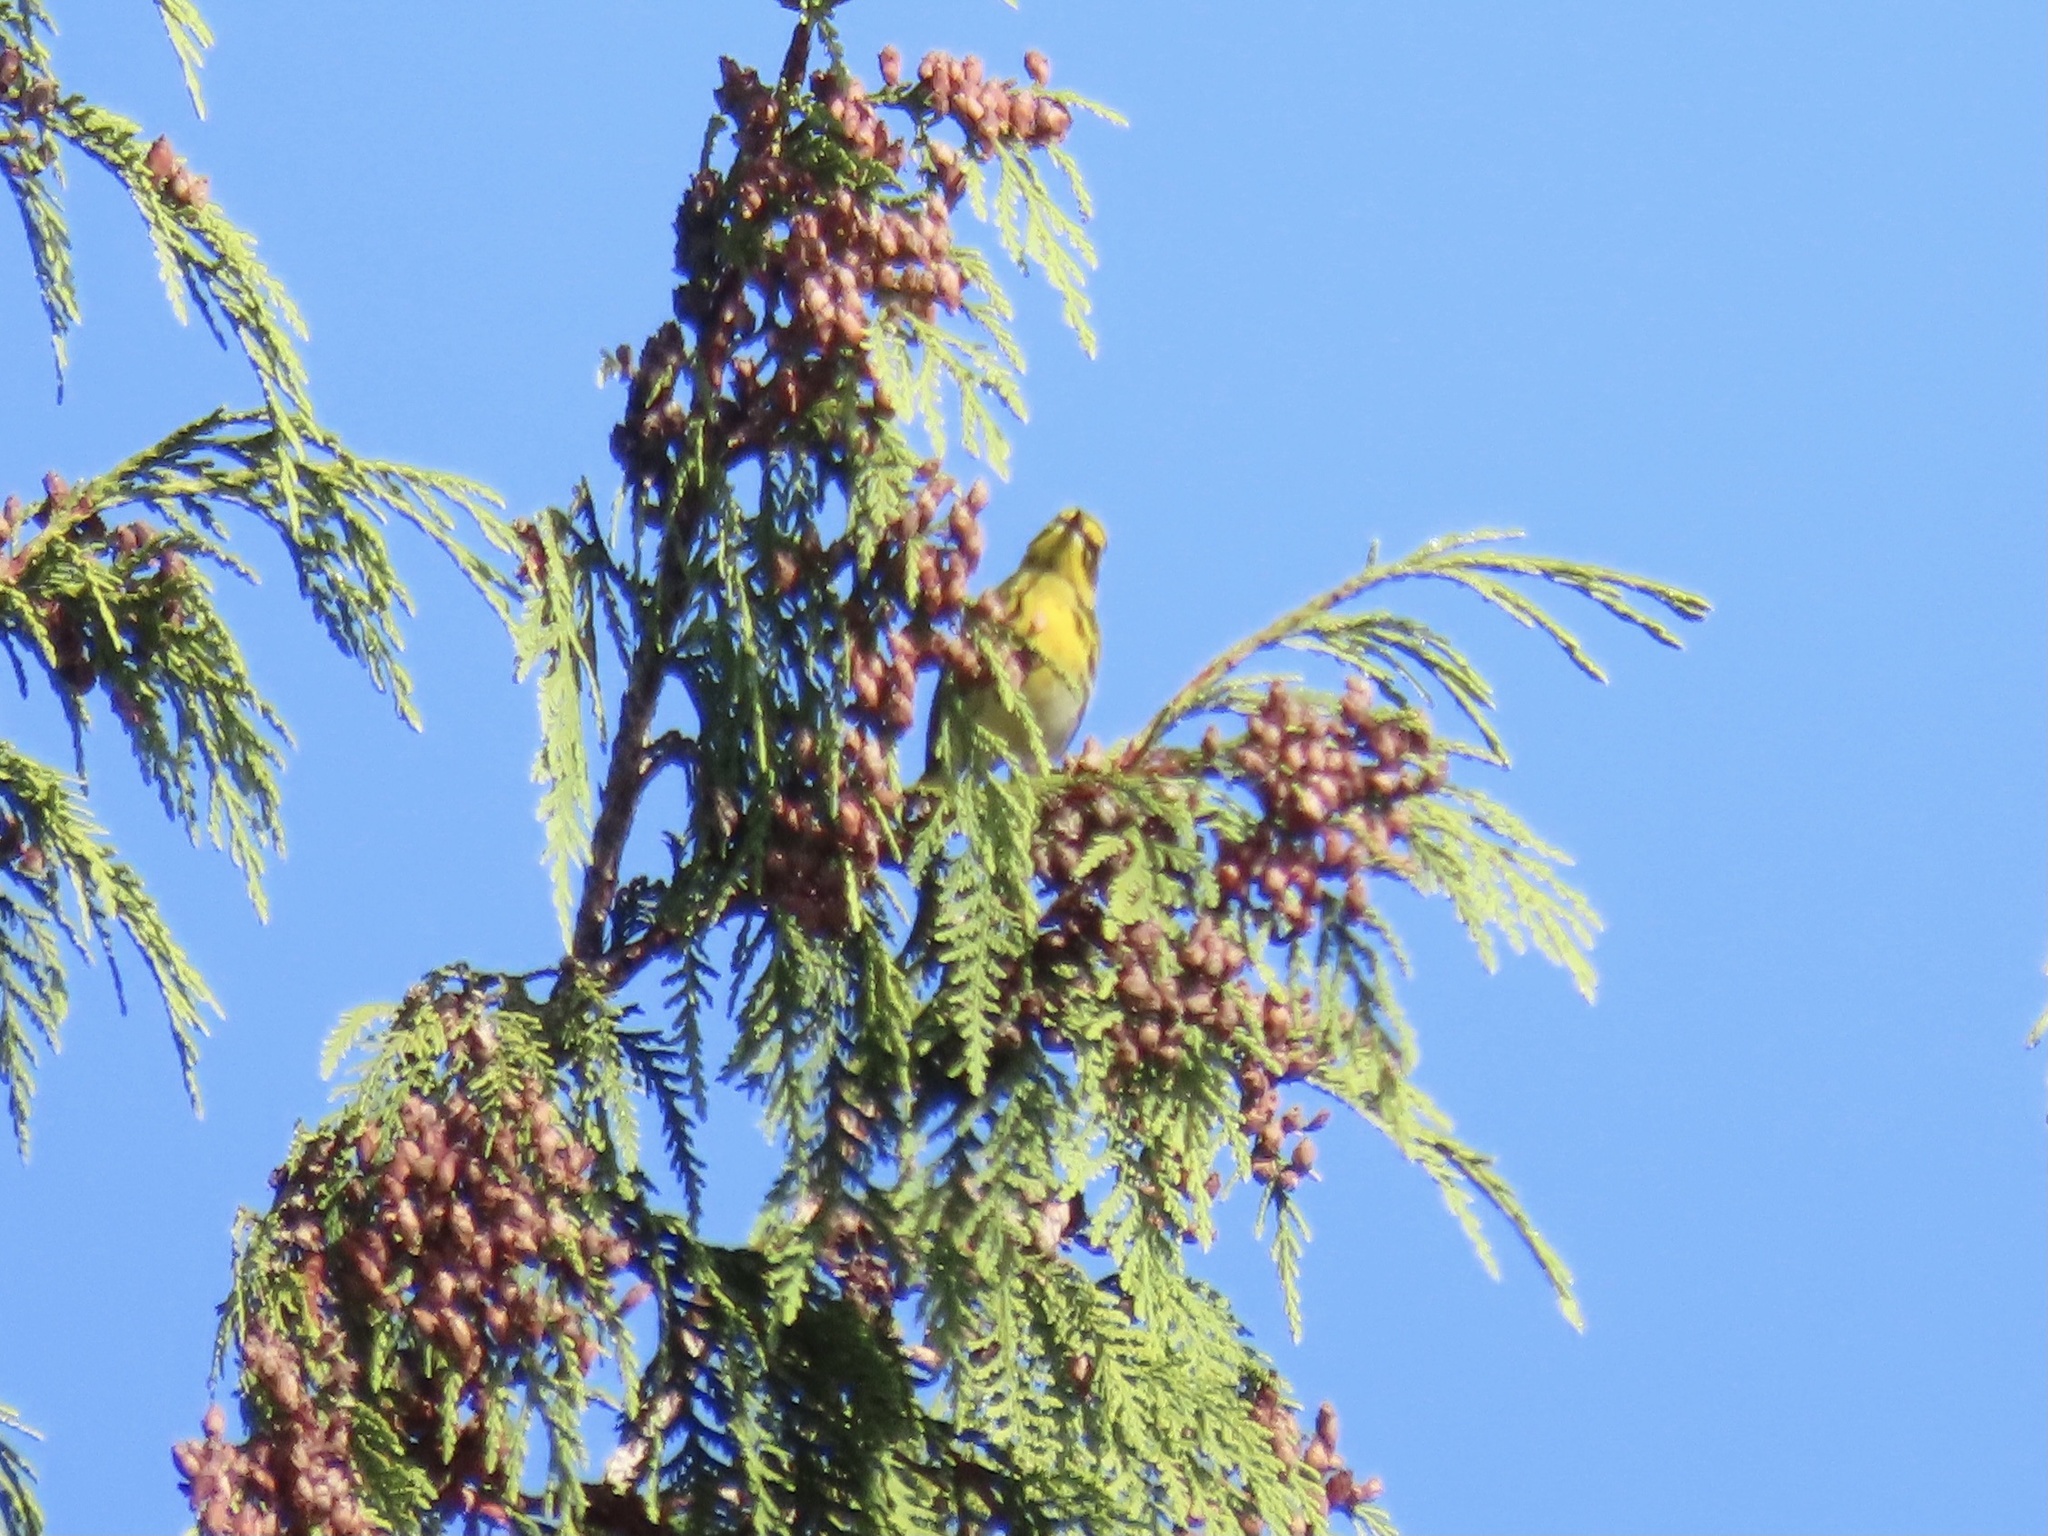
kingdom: Animalia
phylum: Chordata
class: Aves
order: Passeriformes
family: Parulidae
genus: Setophaga
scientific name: Setophaga townsendi
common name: Townsend's warbler
